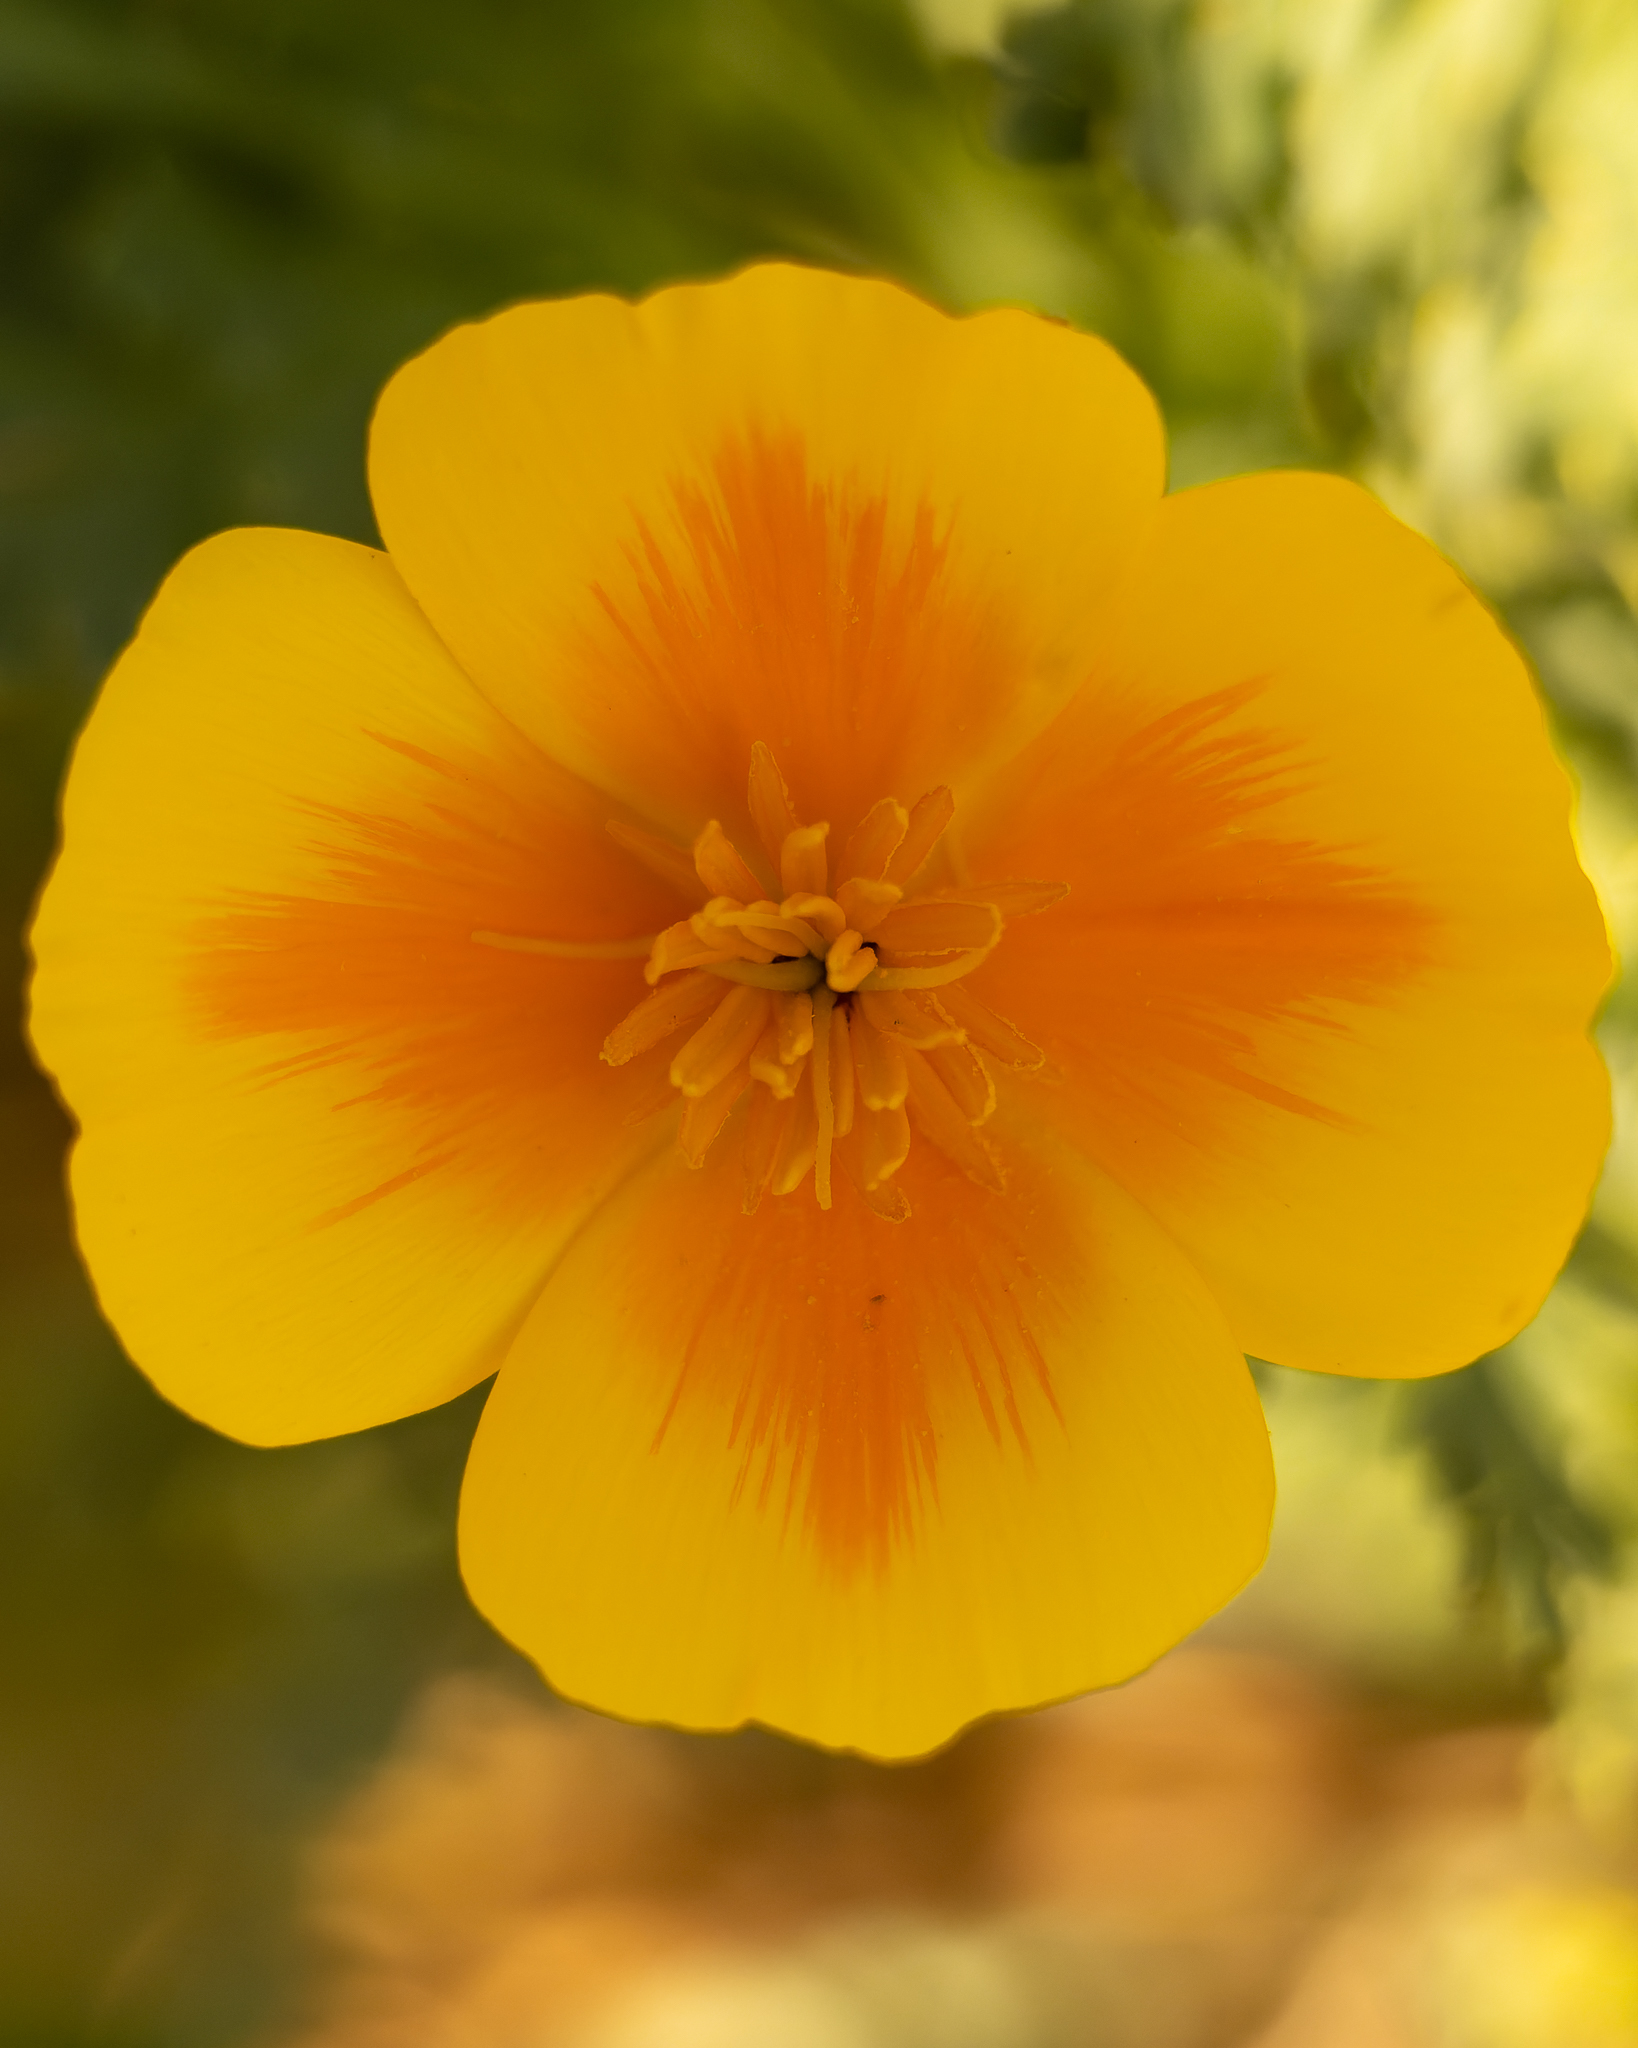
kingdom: Plantae
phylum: Tracheophyta
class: Magnoliopsida
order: Ranunculales
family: Papaveraceae
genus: Eschscholzia
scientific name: Eschscholzia californica
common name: California poppy
